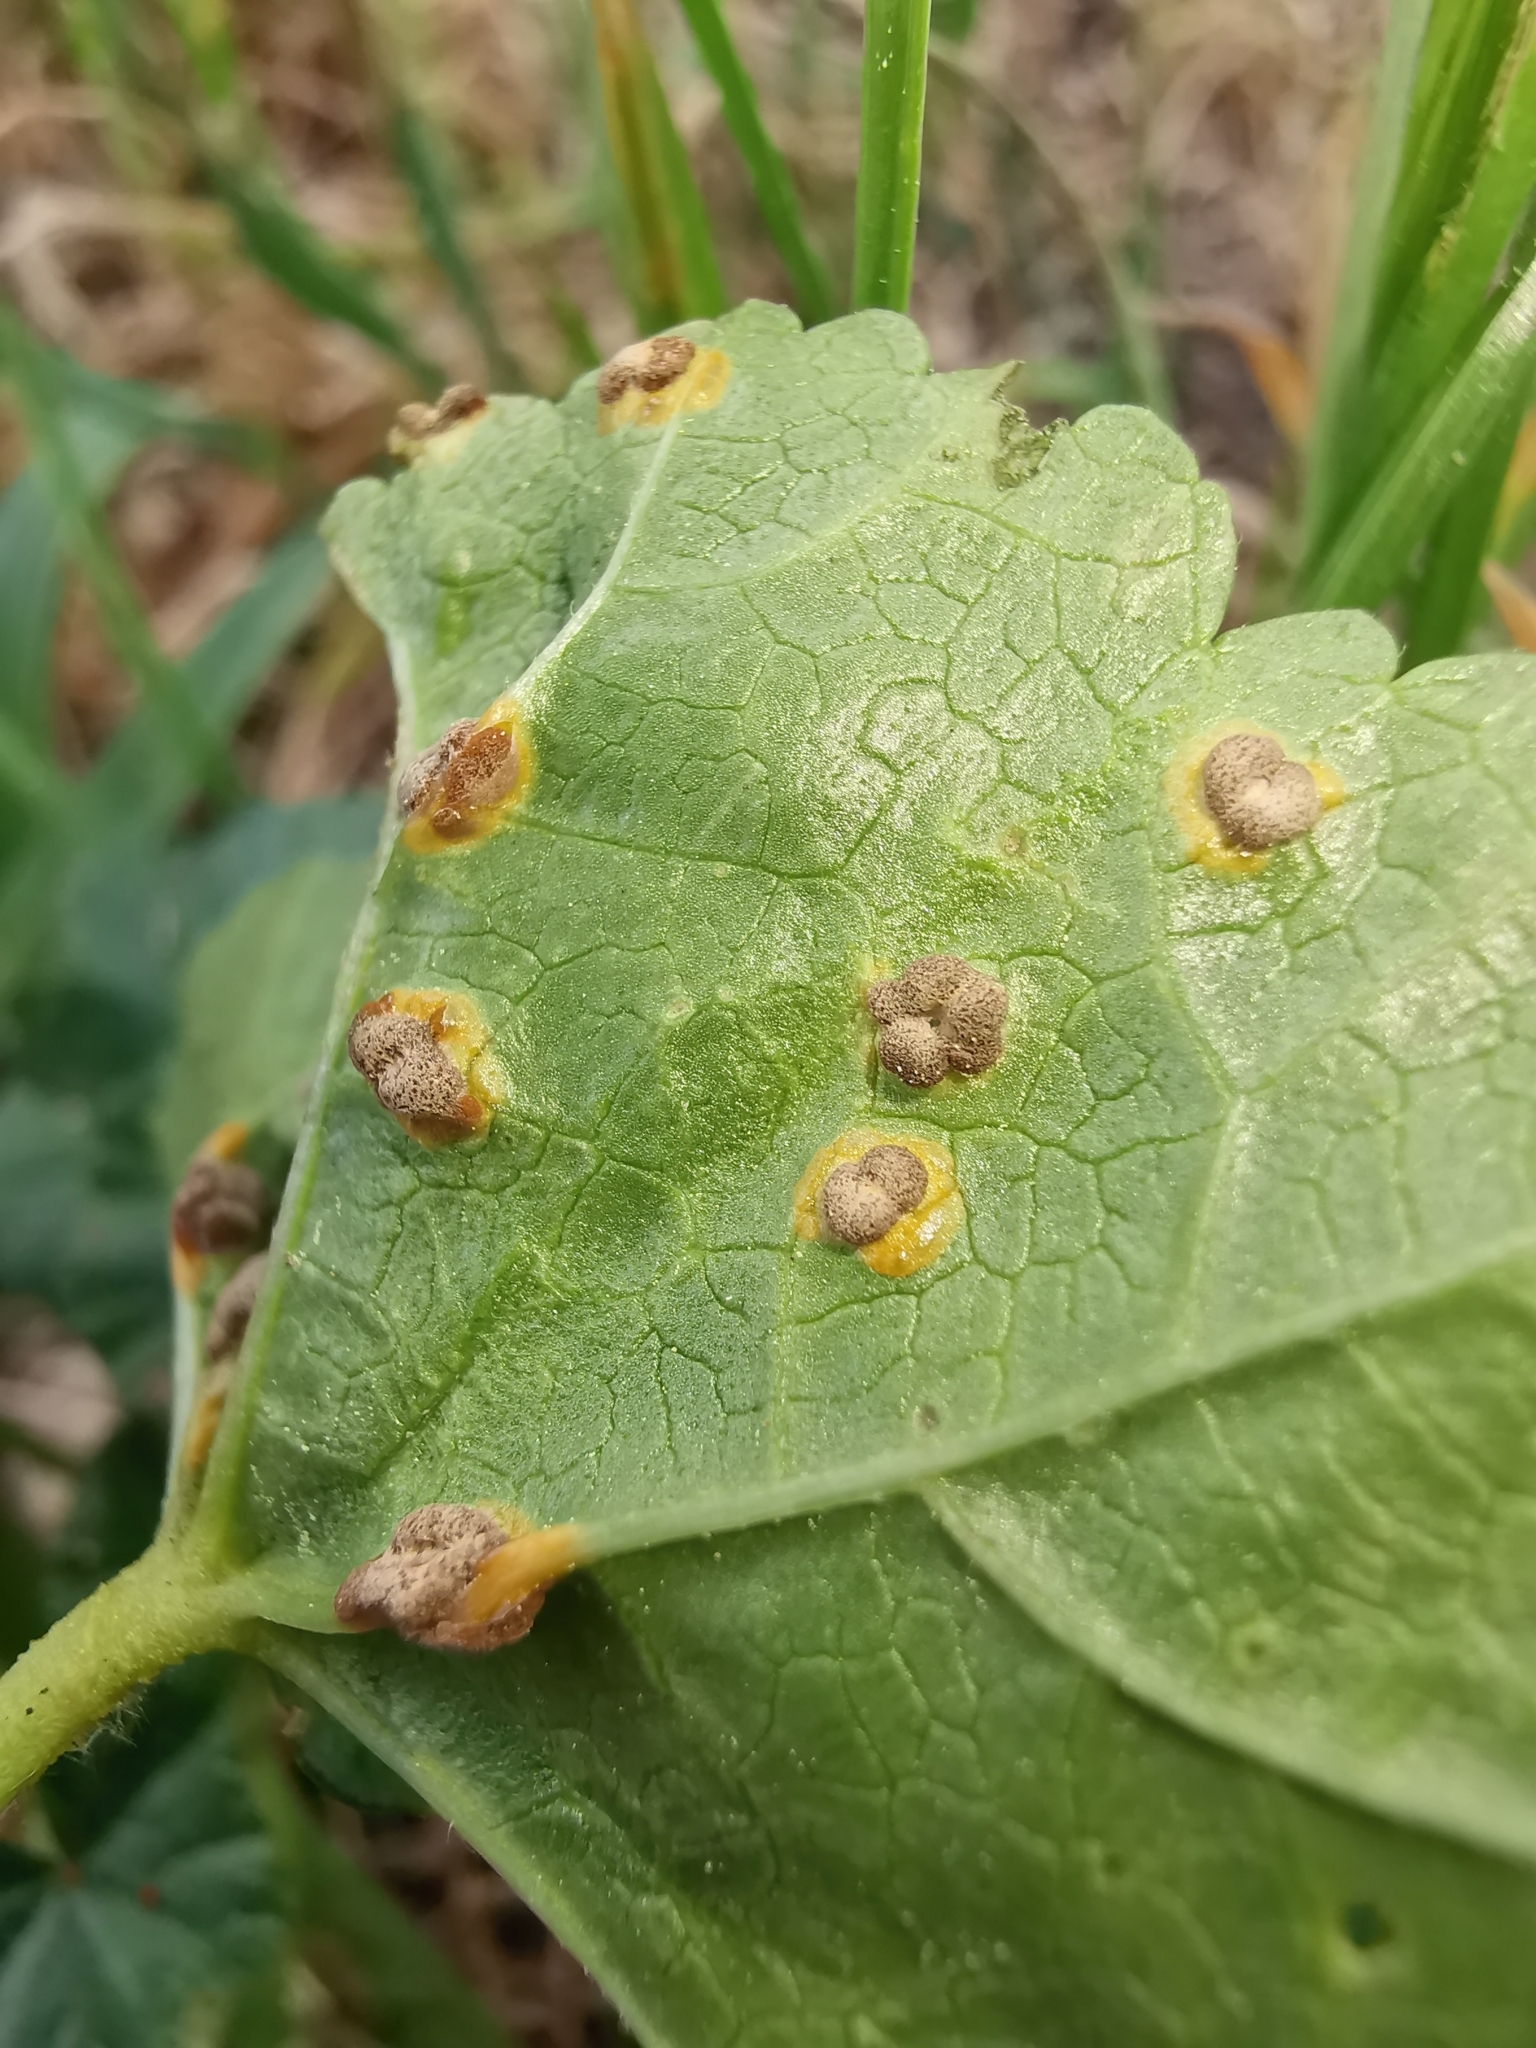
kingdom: Fungi
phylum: Basidiomycota
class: Pucciniomycetes
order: Pucciniales
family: Pucciniaceae
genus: Puccinia
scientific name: Puccinia malvacearum
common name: Hollyhock rust
